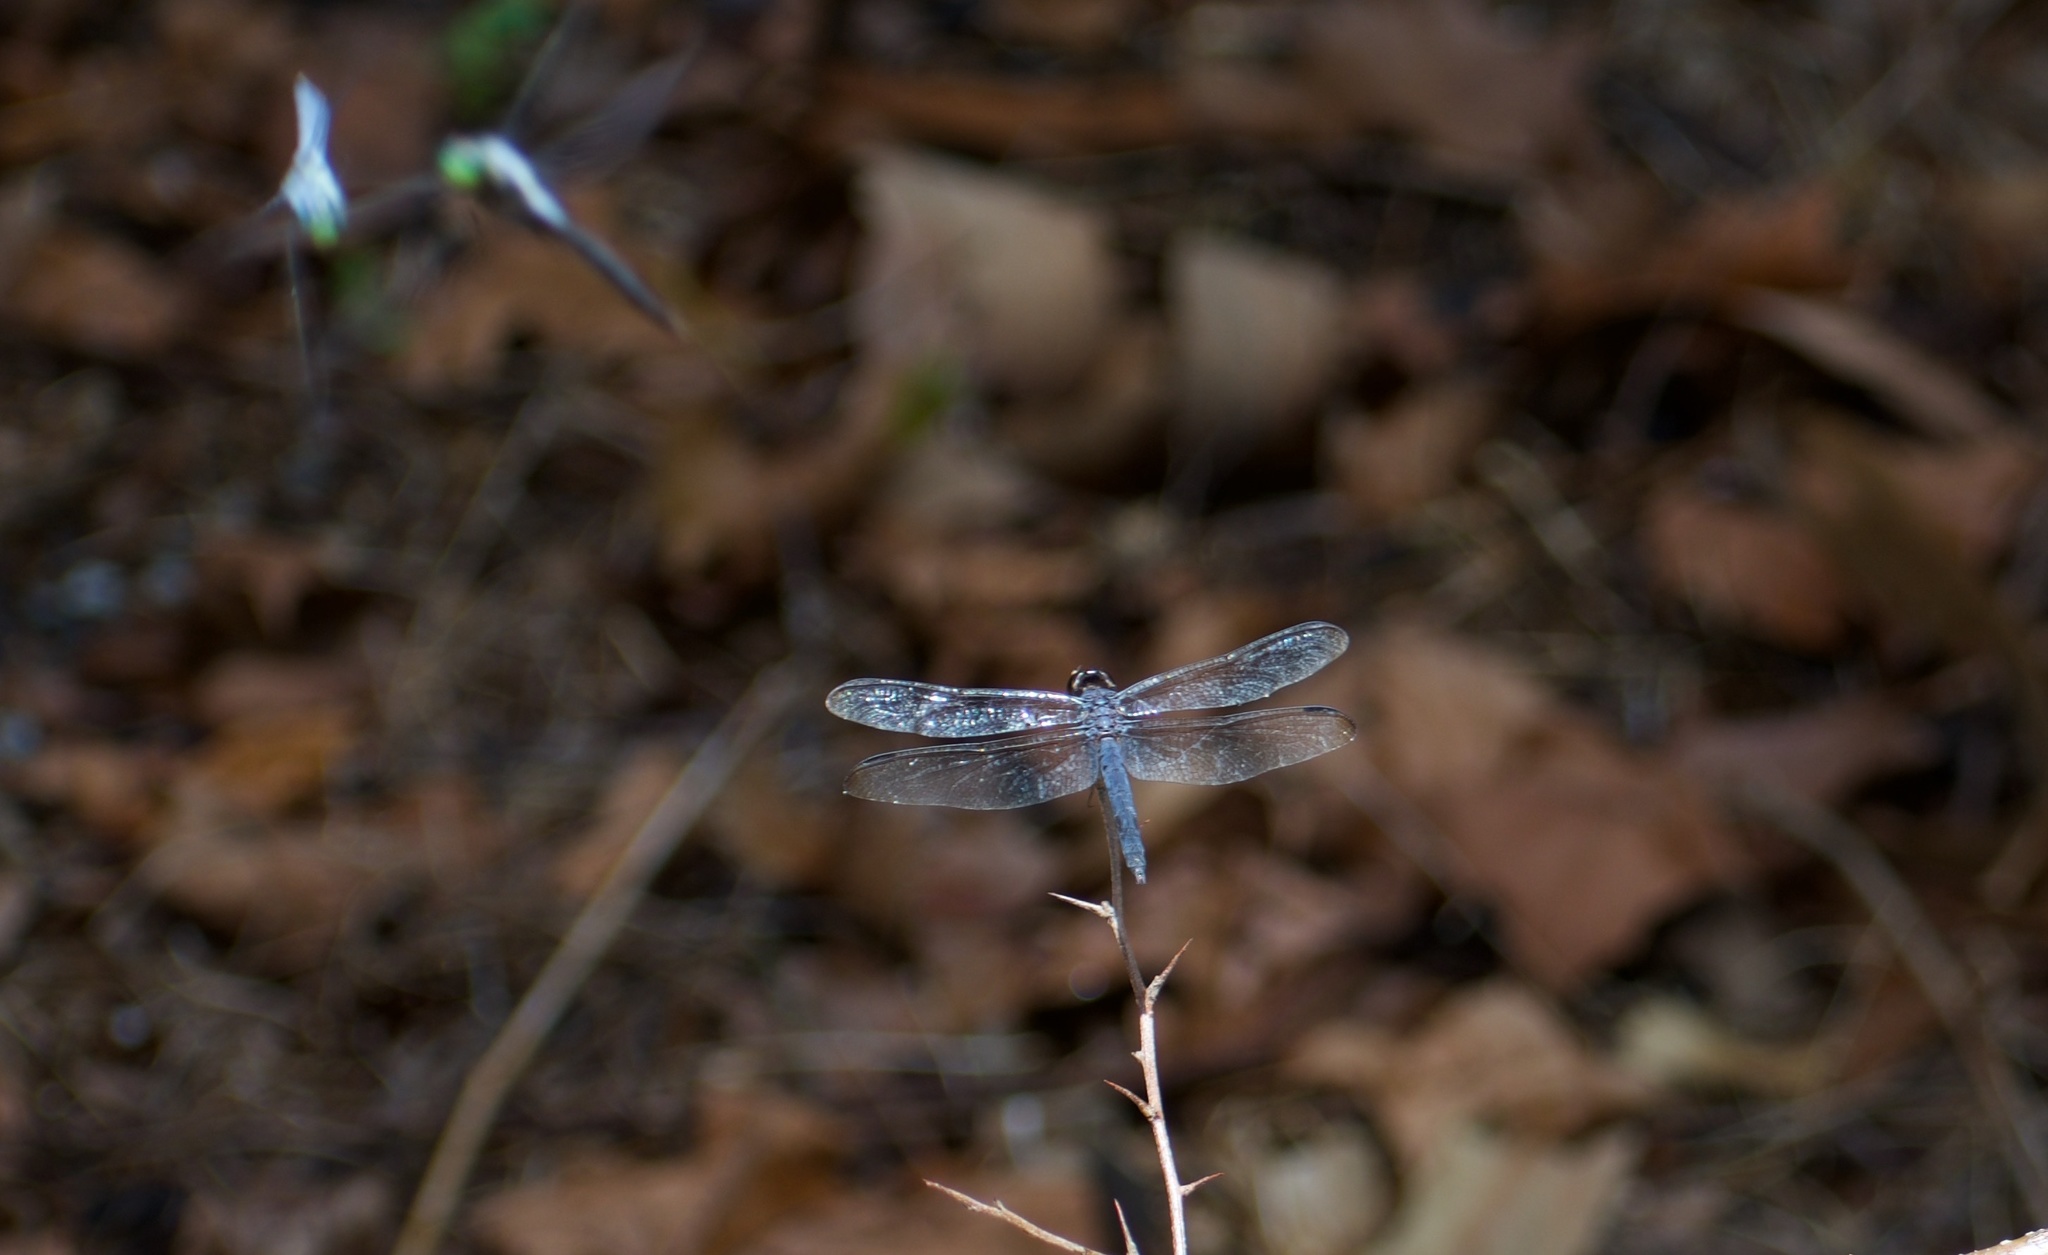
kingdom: Animalia
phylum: Arthropoda
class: Insecta
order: Odonata
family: Libellulidae
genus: Libellula
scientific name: Libellula incesta
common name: Slaty skimmer
